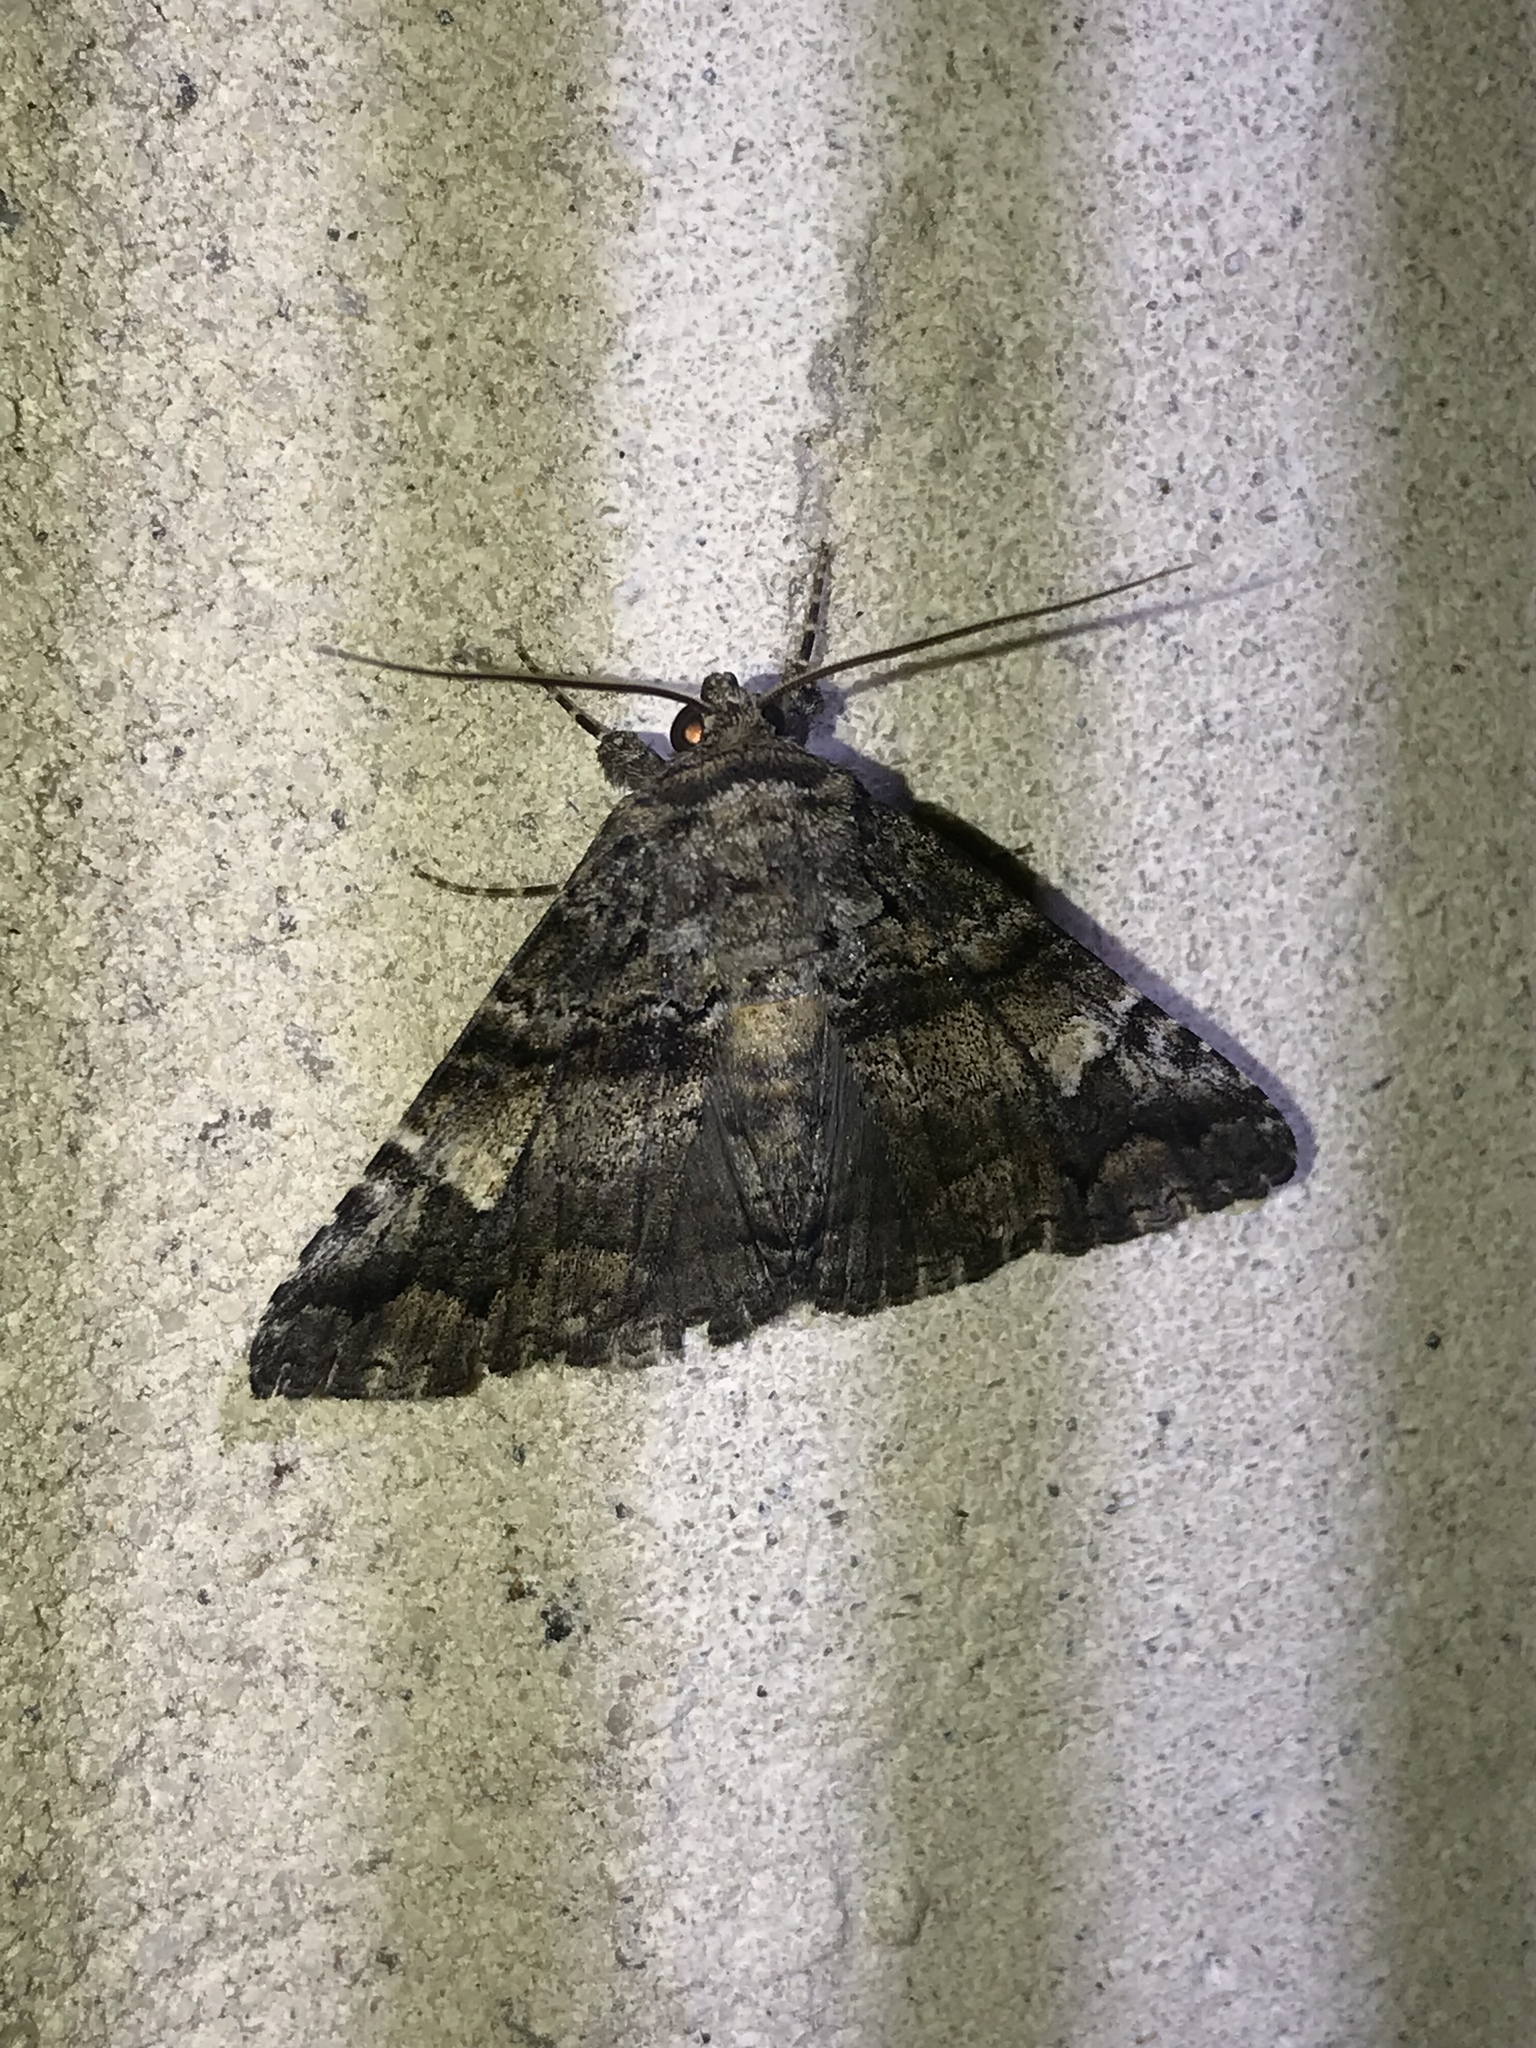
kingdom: Animalia
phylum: Arthropoda
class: Insecta
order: Lepidoptera
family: Erebidae
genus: Metria
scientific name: Metria amella
